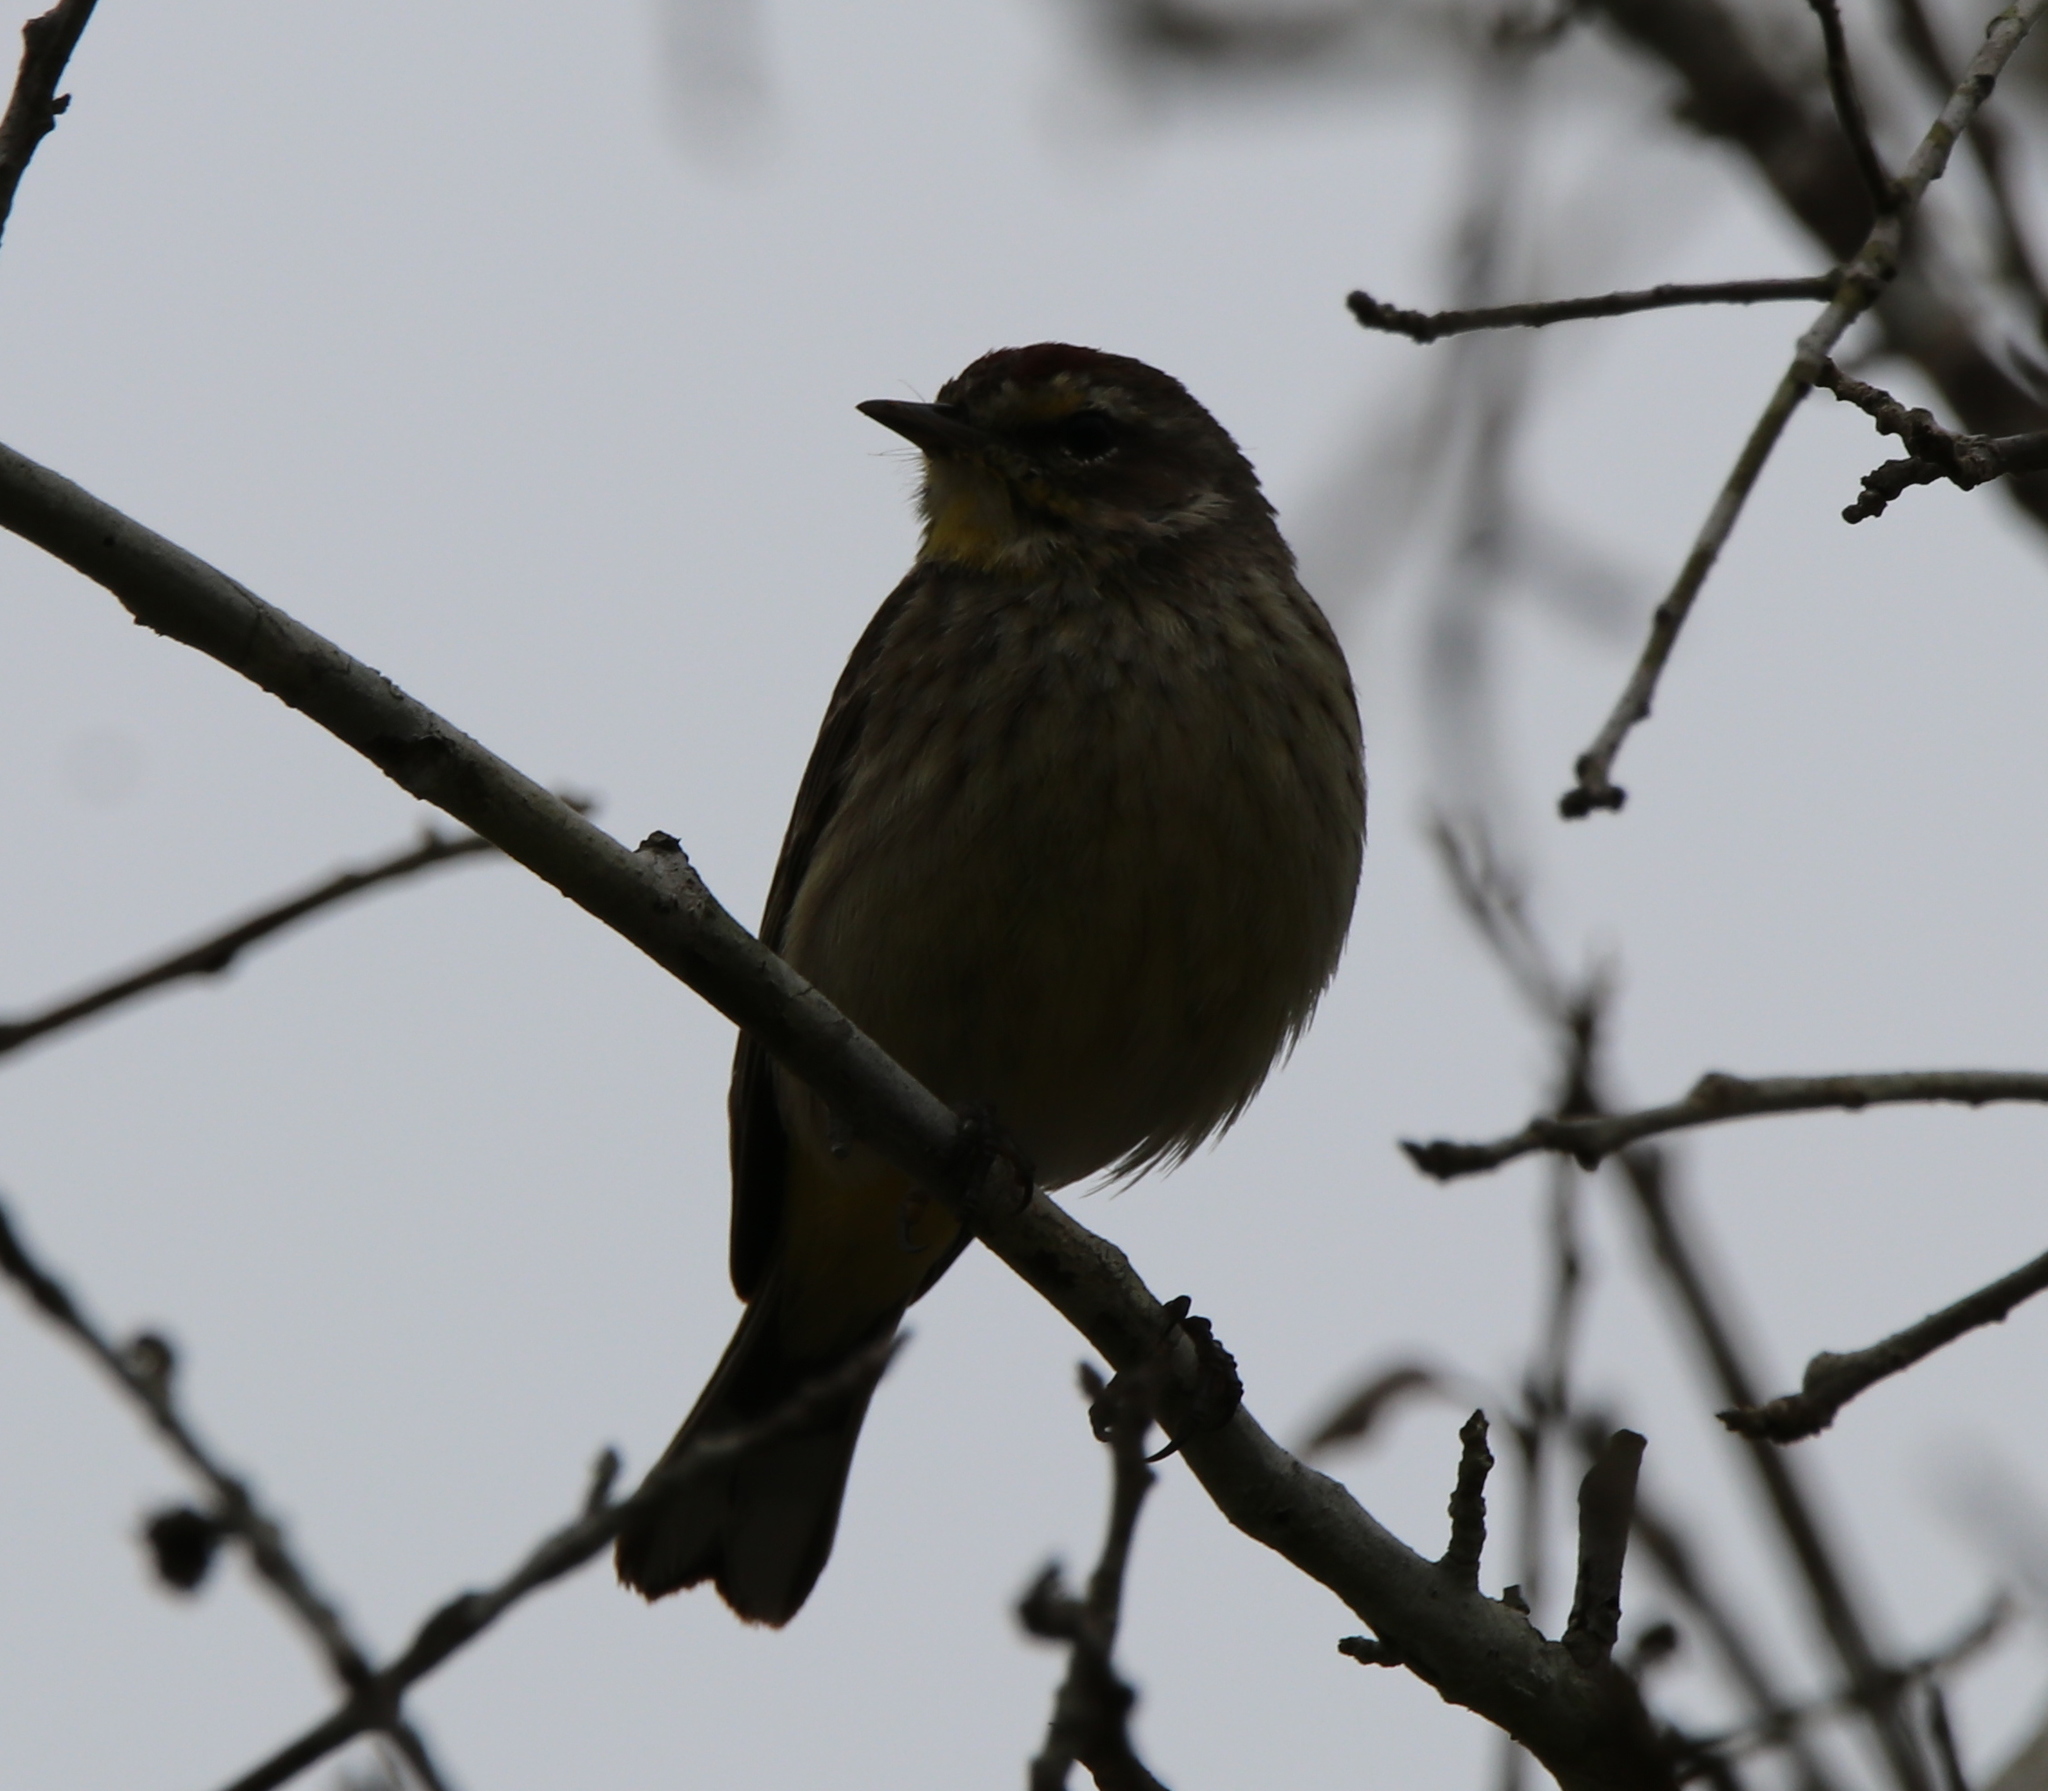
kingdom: Animalia
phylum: Chordata
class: Aves
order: Passeriformes
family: Parulidae
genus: Setophaga
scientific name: Setophaga palmarum
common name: Palm warbler
